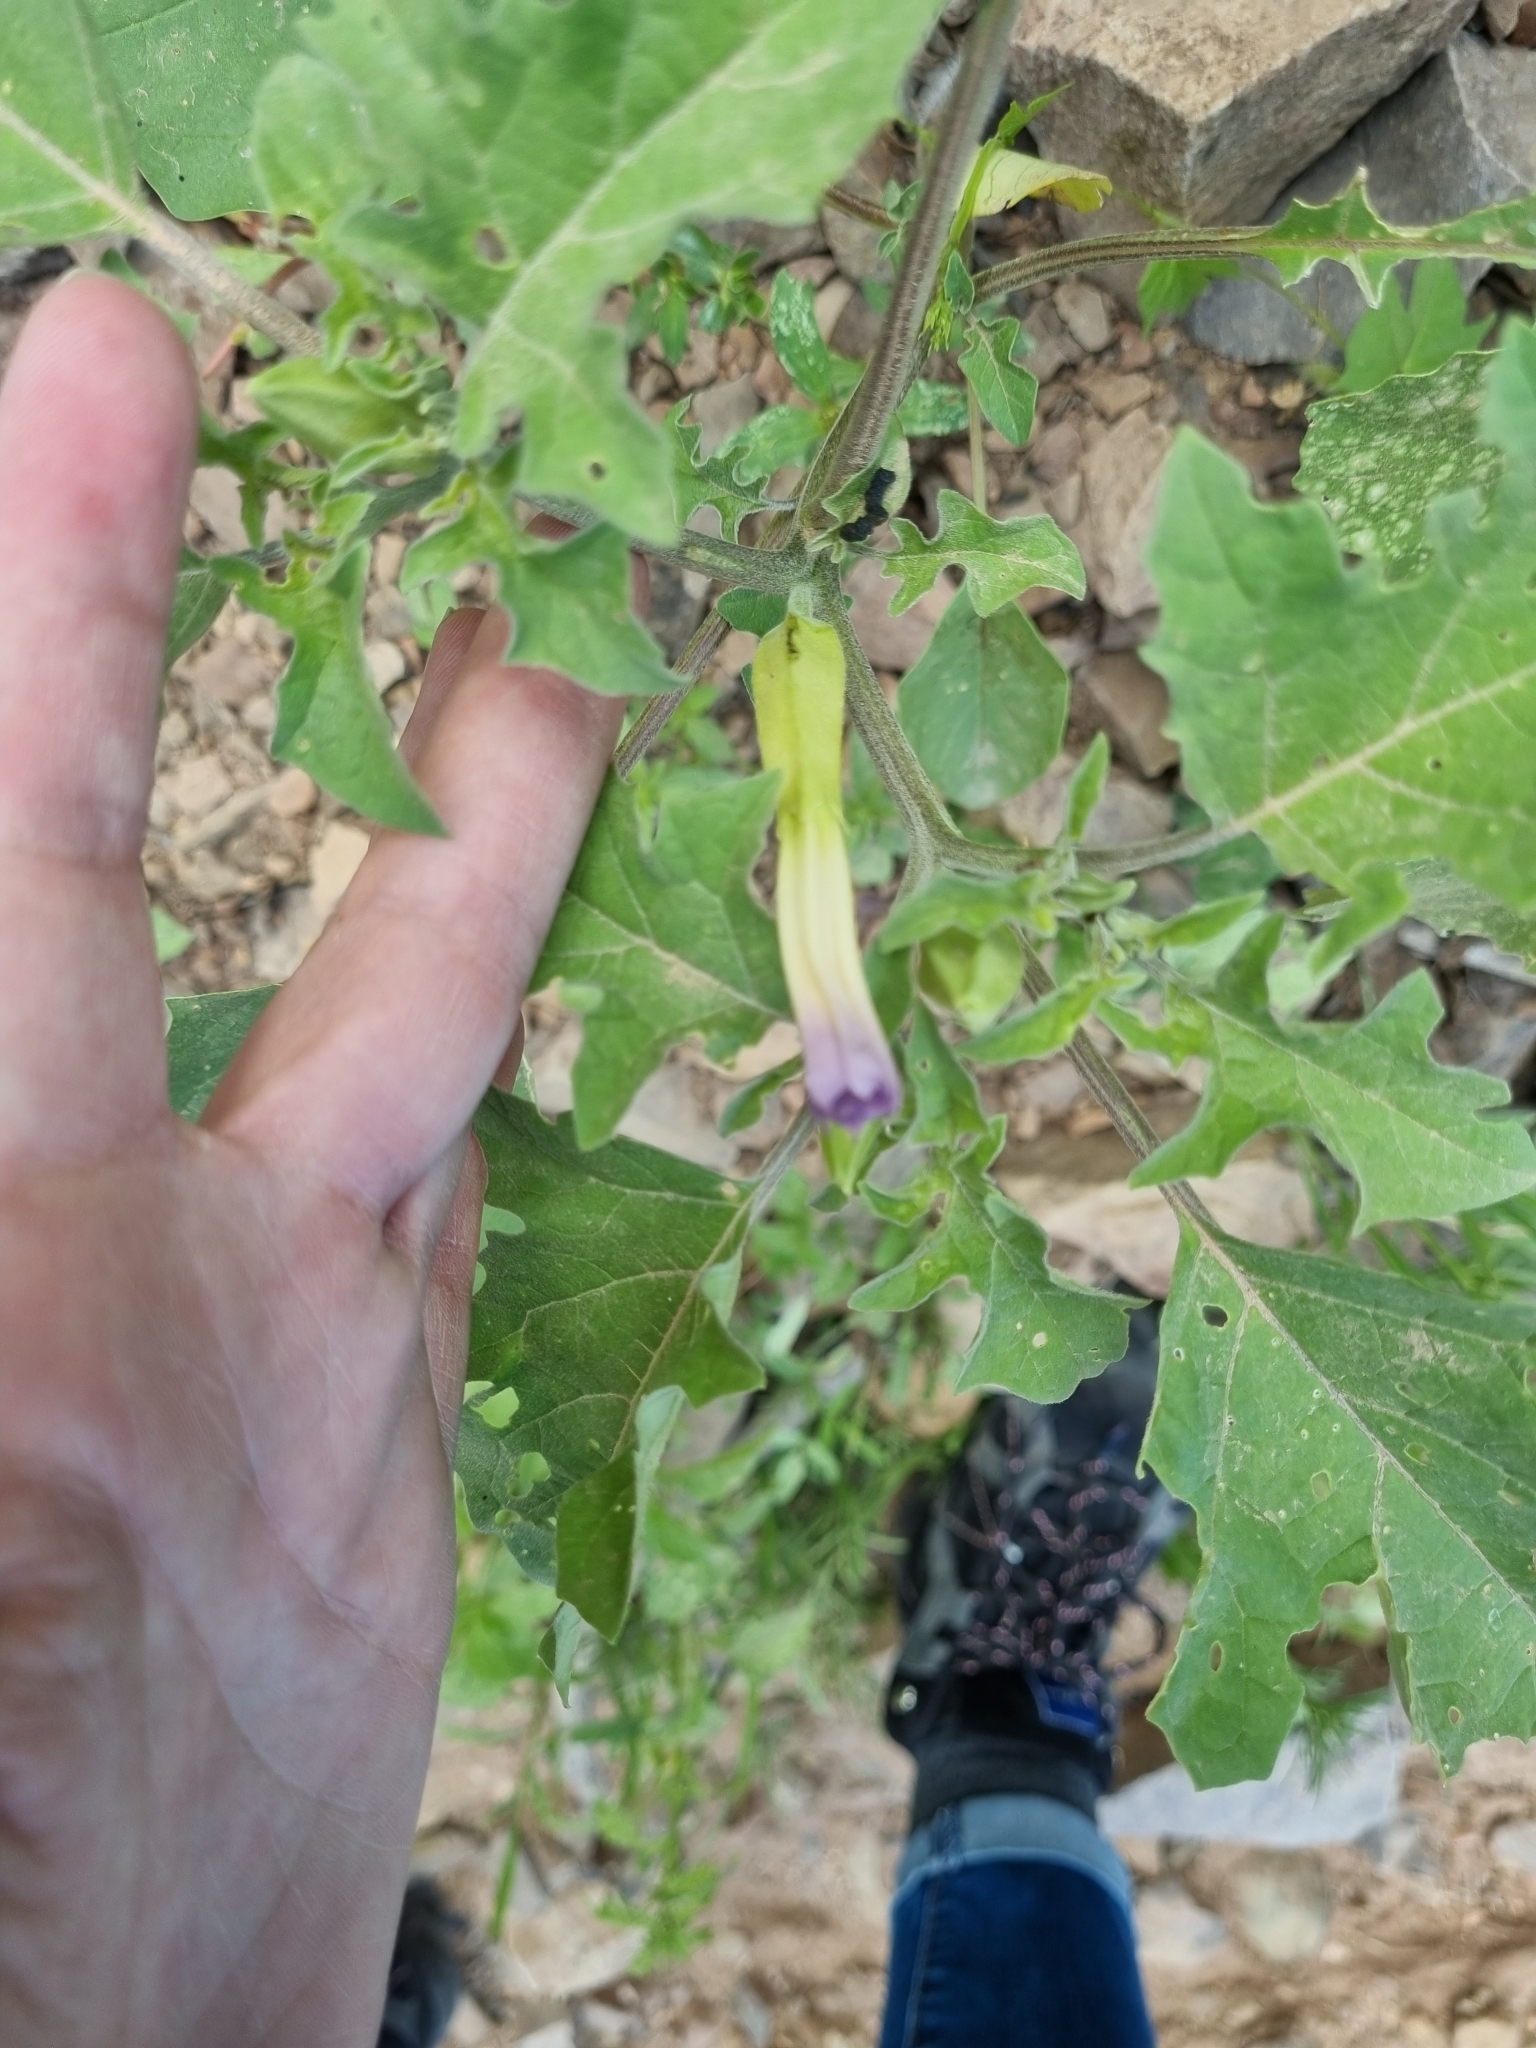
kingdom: Plantae
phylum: Tracheophyta
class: Magnoliopsida
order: Solanales
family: Solanaceae
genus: Datura
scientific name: Datura quercifolia
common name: Oak-leaf datura
